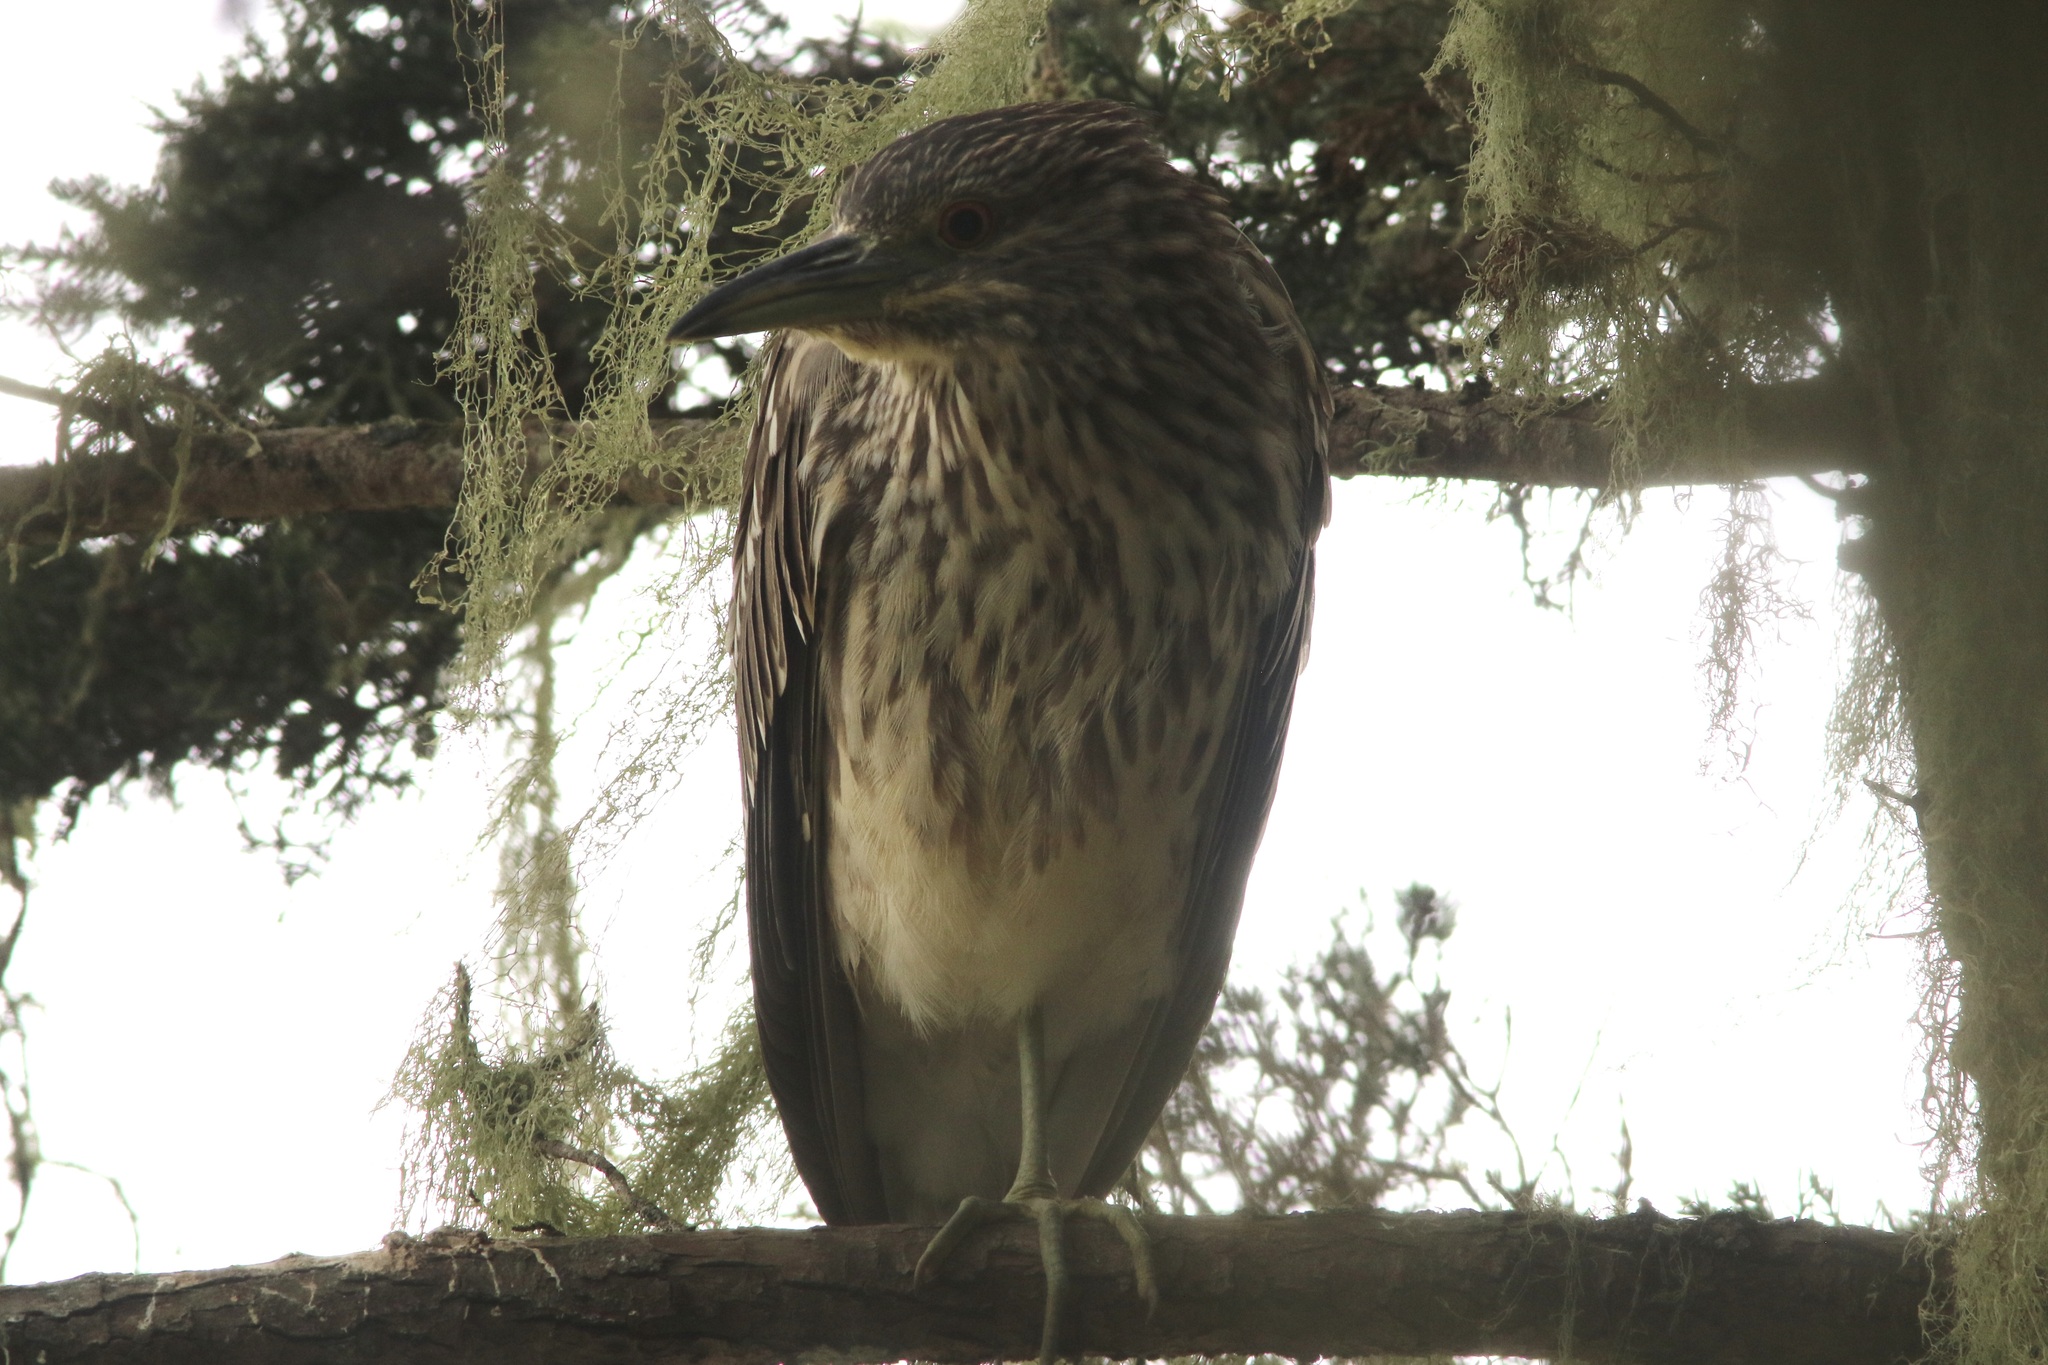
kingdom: Animalia
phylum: Chordata
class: Aves
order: Pelecaniformes
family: Ardeidae
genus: Nycticorax
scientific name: Nycticorax nycticorax
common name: Black-crowned night heron
